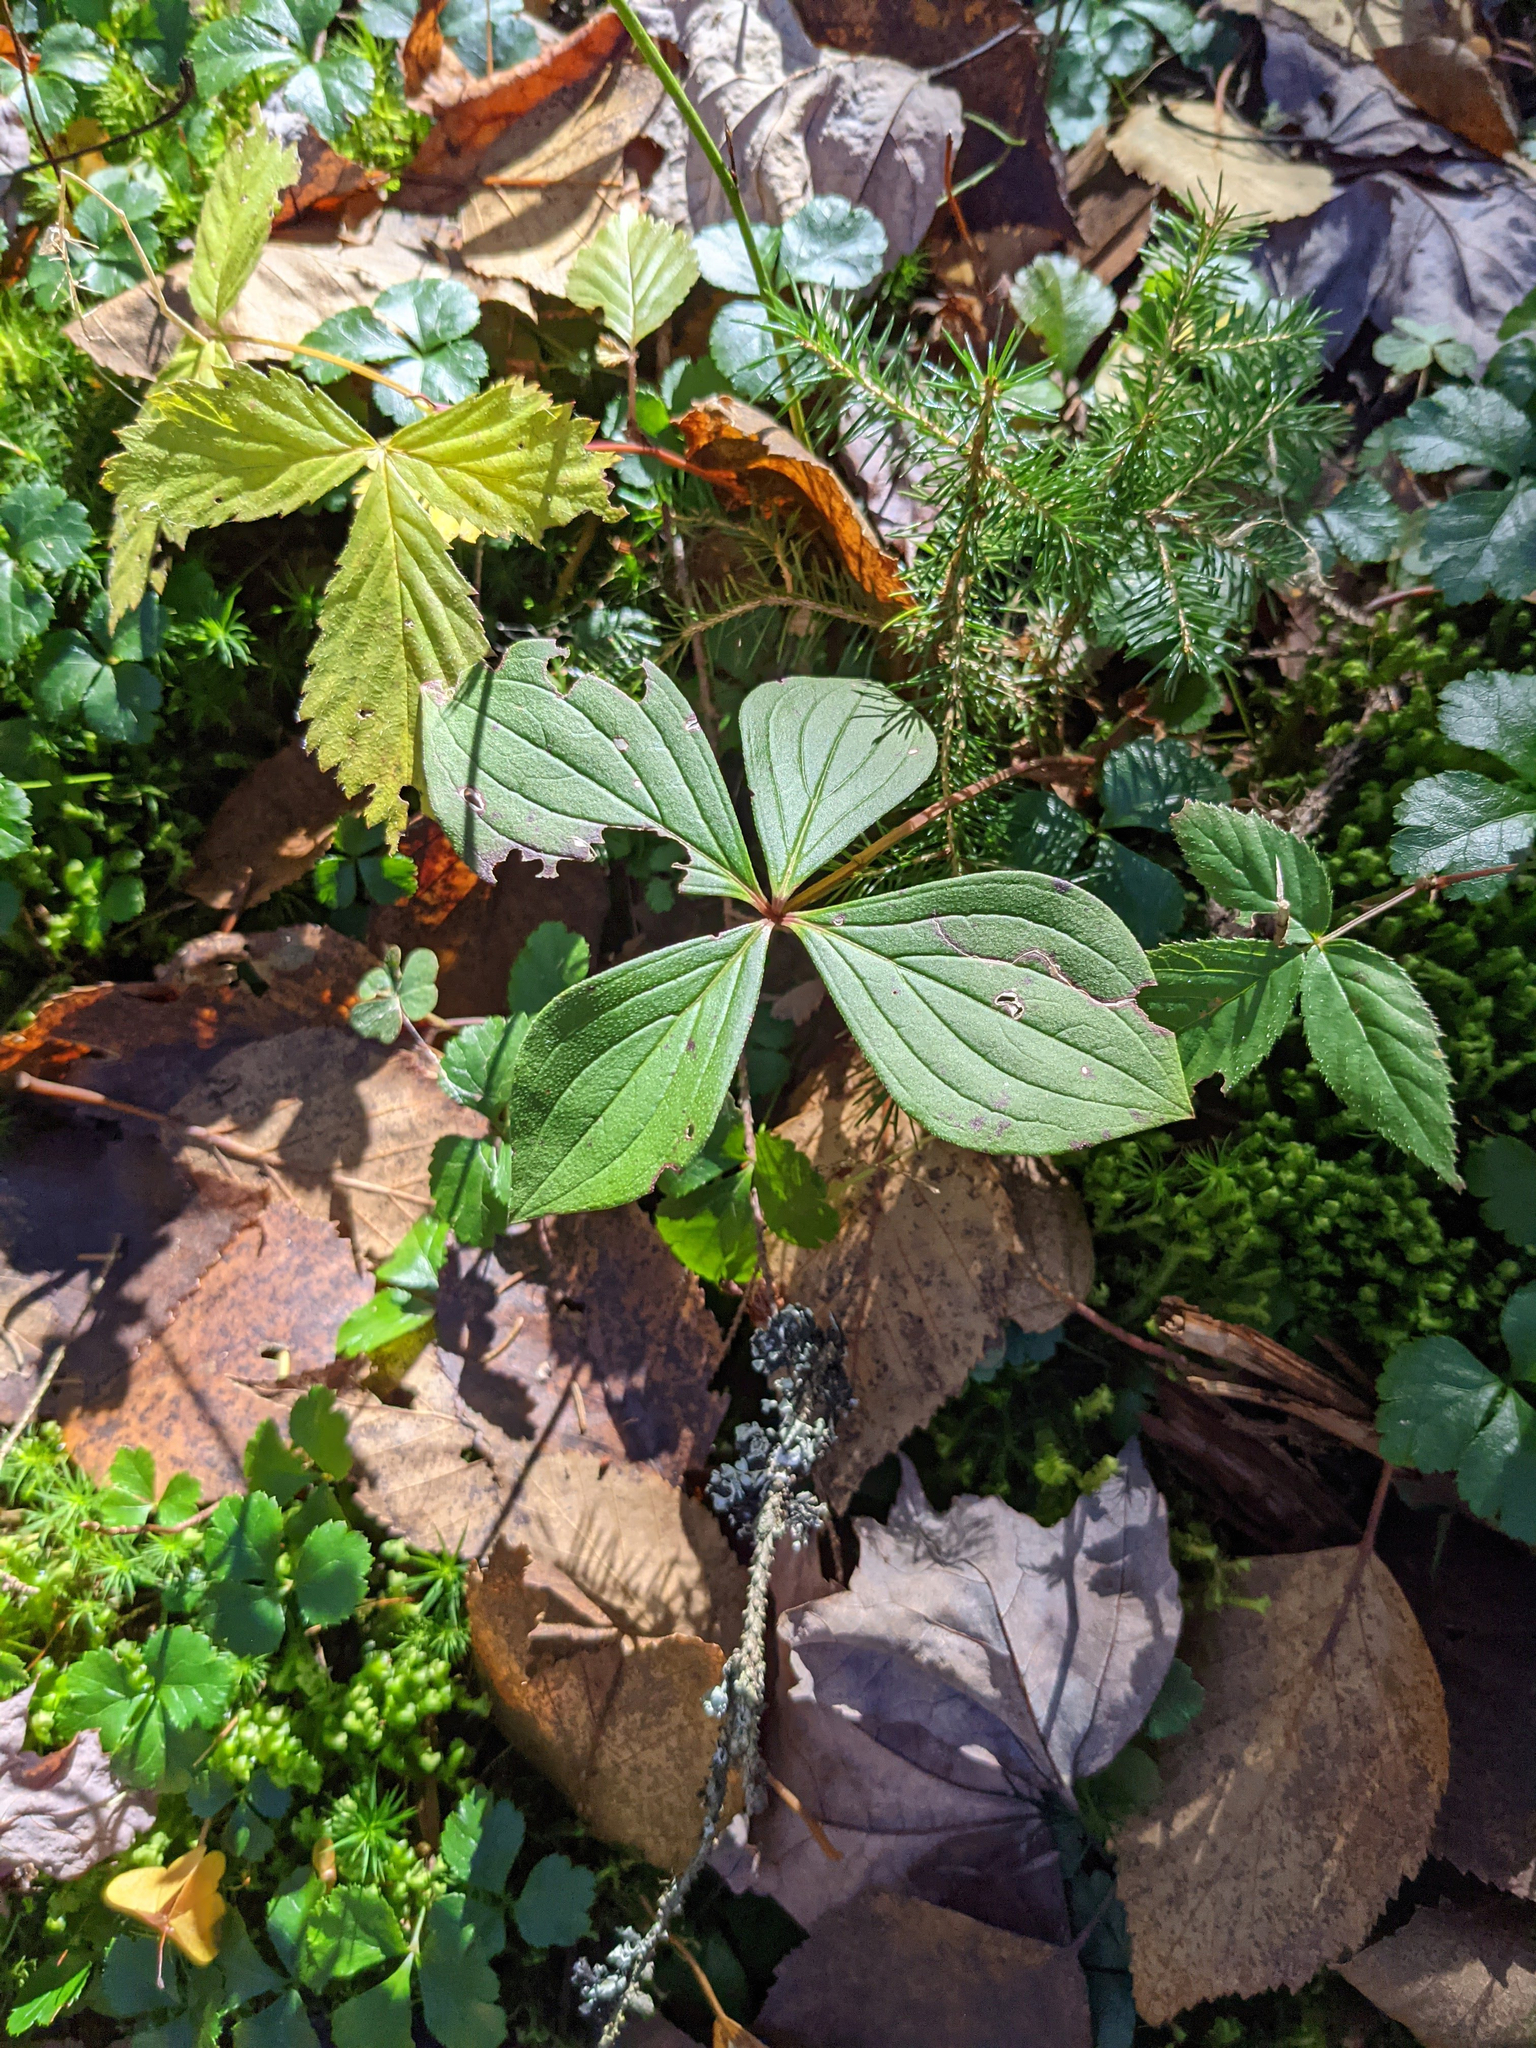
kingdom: Plantae
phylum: Tracheophyta
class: Magnoliopsida
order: Cornales
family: Cornaceae
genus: Cornus
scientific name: Cornus canadensis
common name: Creeping dogwood
